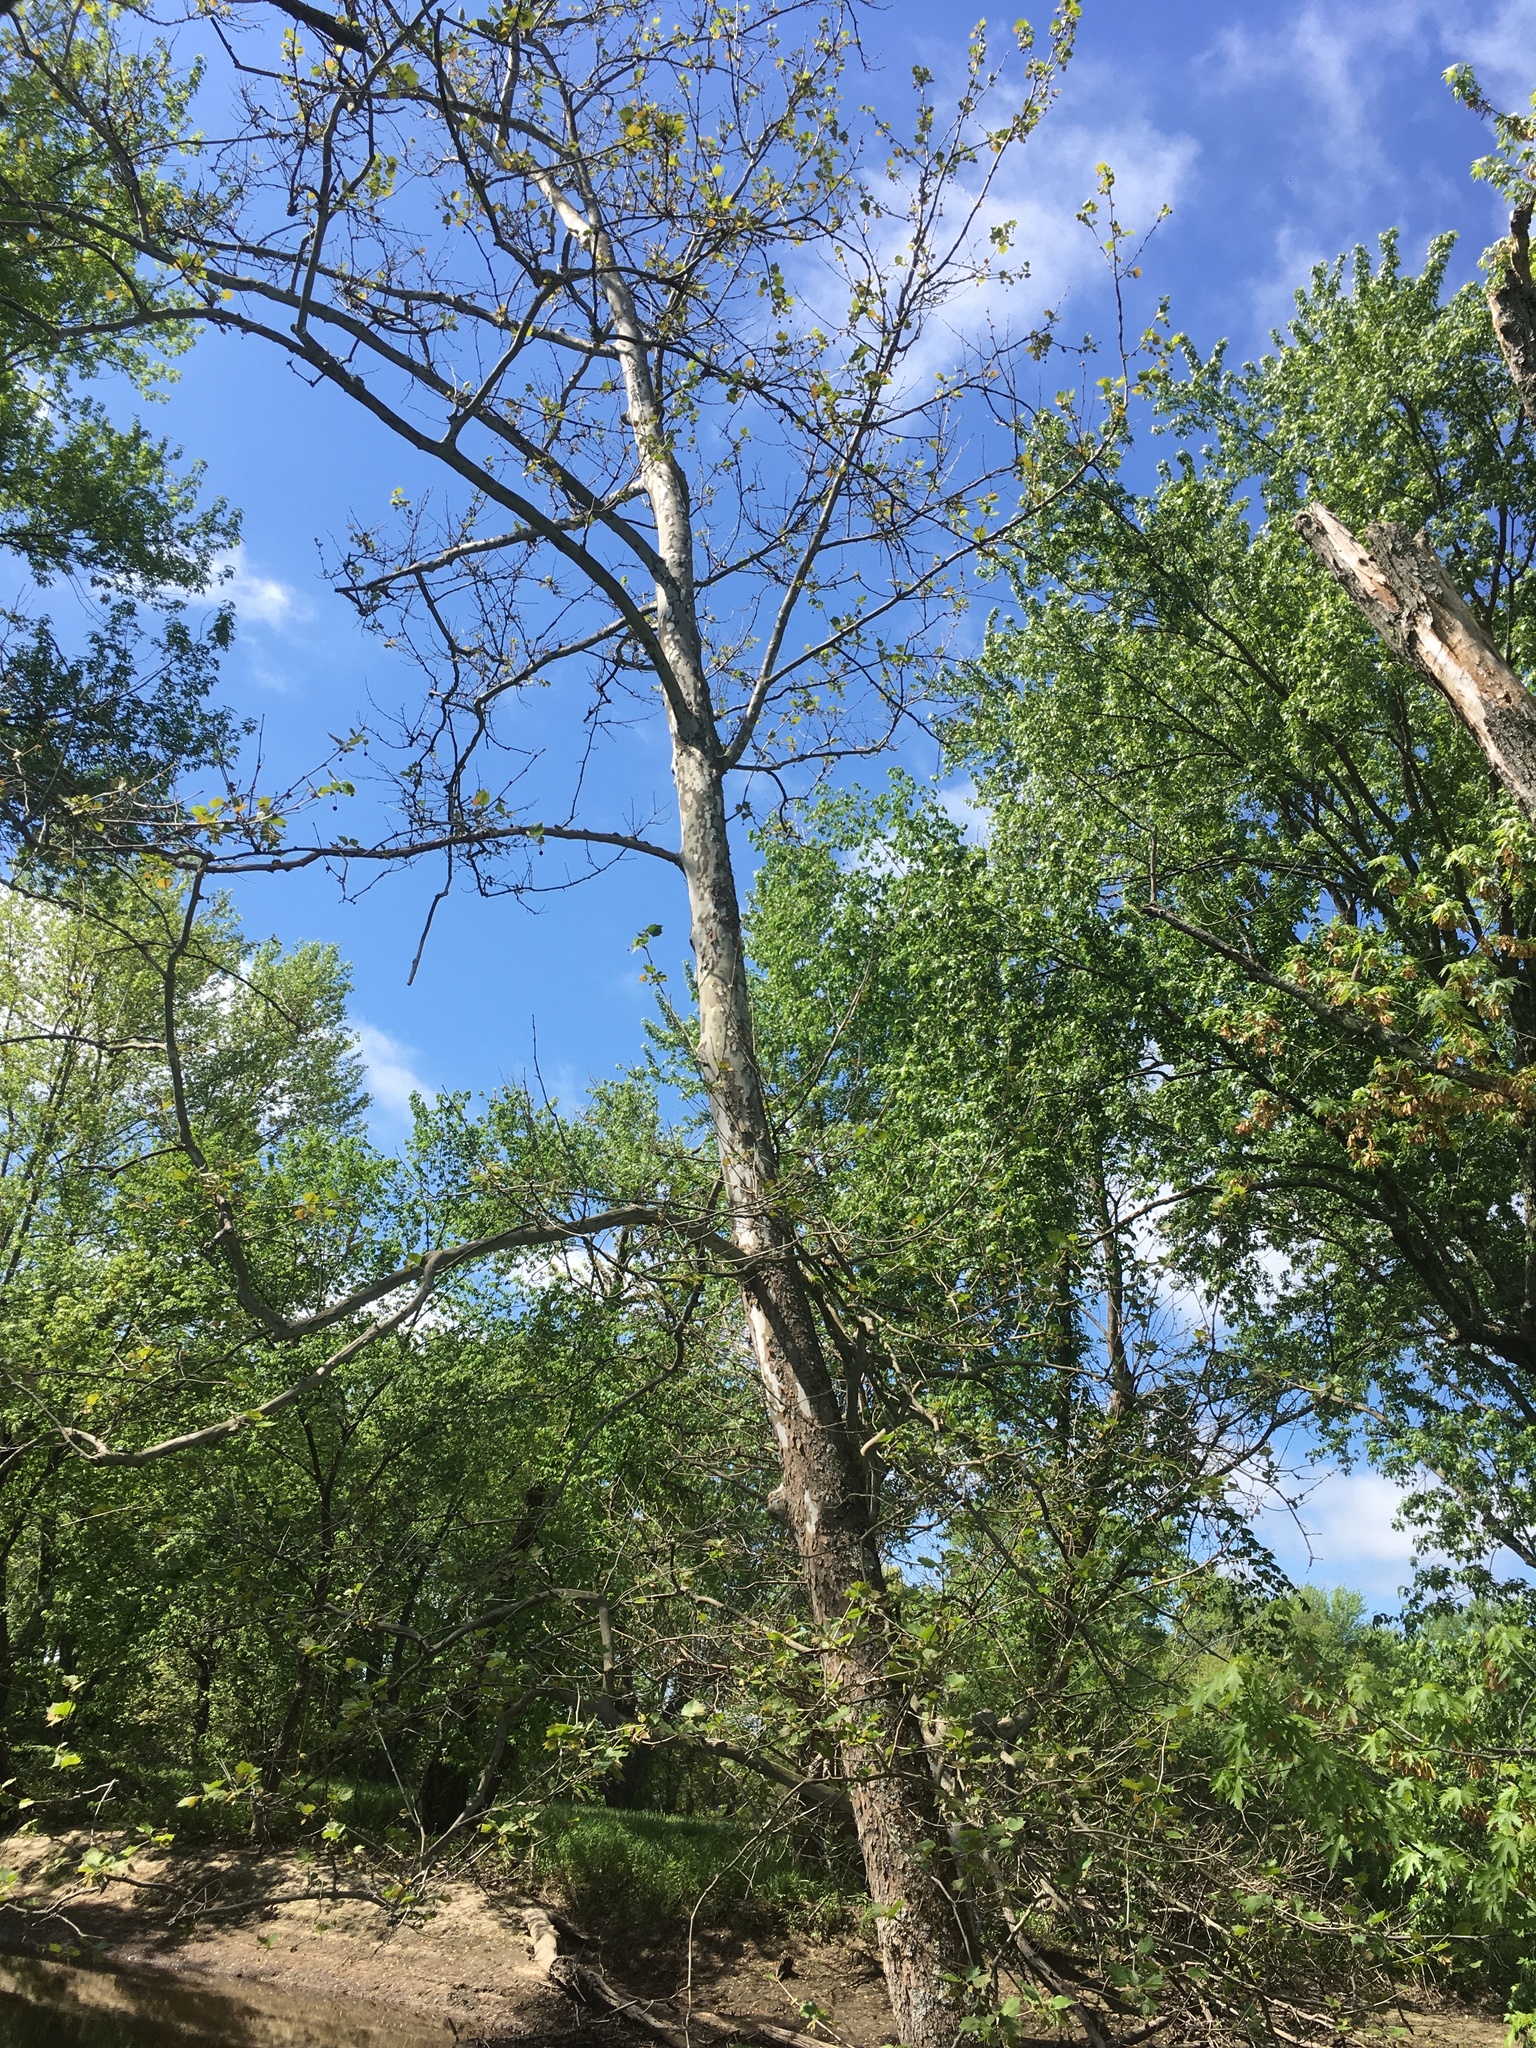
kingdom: Plantae
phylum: Tracheophyta
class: Magnoliopsida
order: Proteales
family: Platanaceae
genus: Platanus
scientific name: Platanus occidentalis
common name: American sycamore
